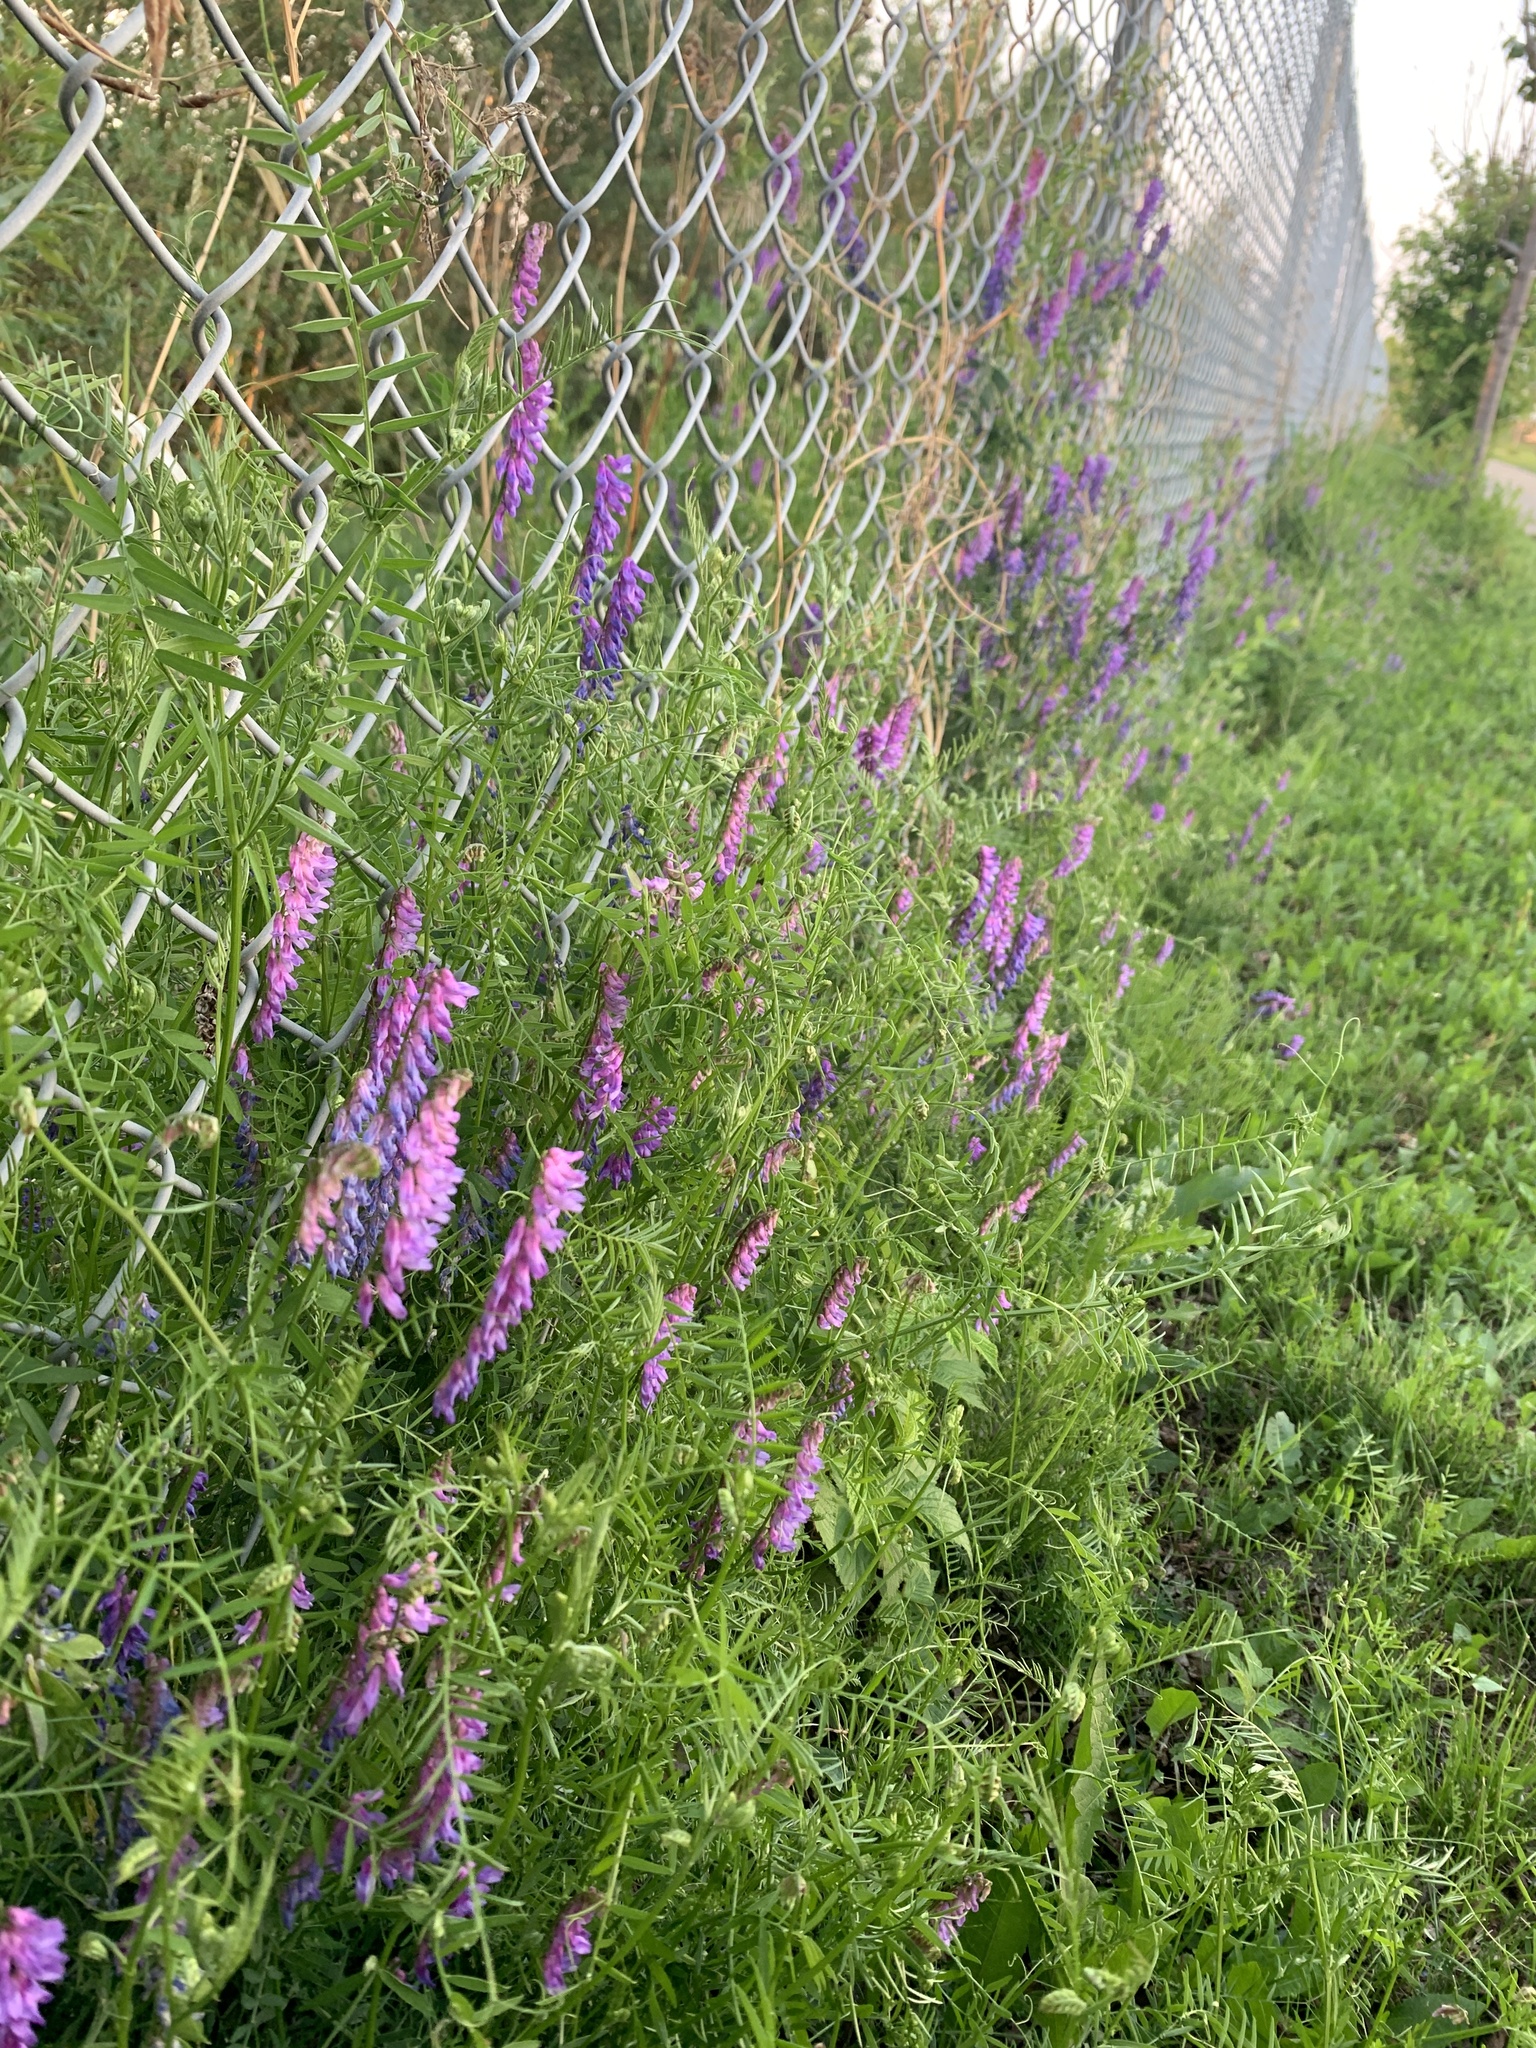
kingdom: Plantae
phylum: Tracheophyta
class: Magnoliopsida
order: Fabales
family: Fabaceae
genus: Vicia
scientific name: Vicia cracca
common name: Bird vetch
